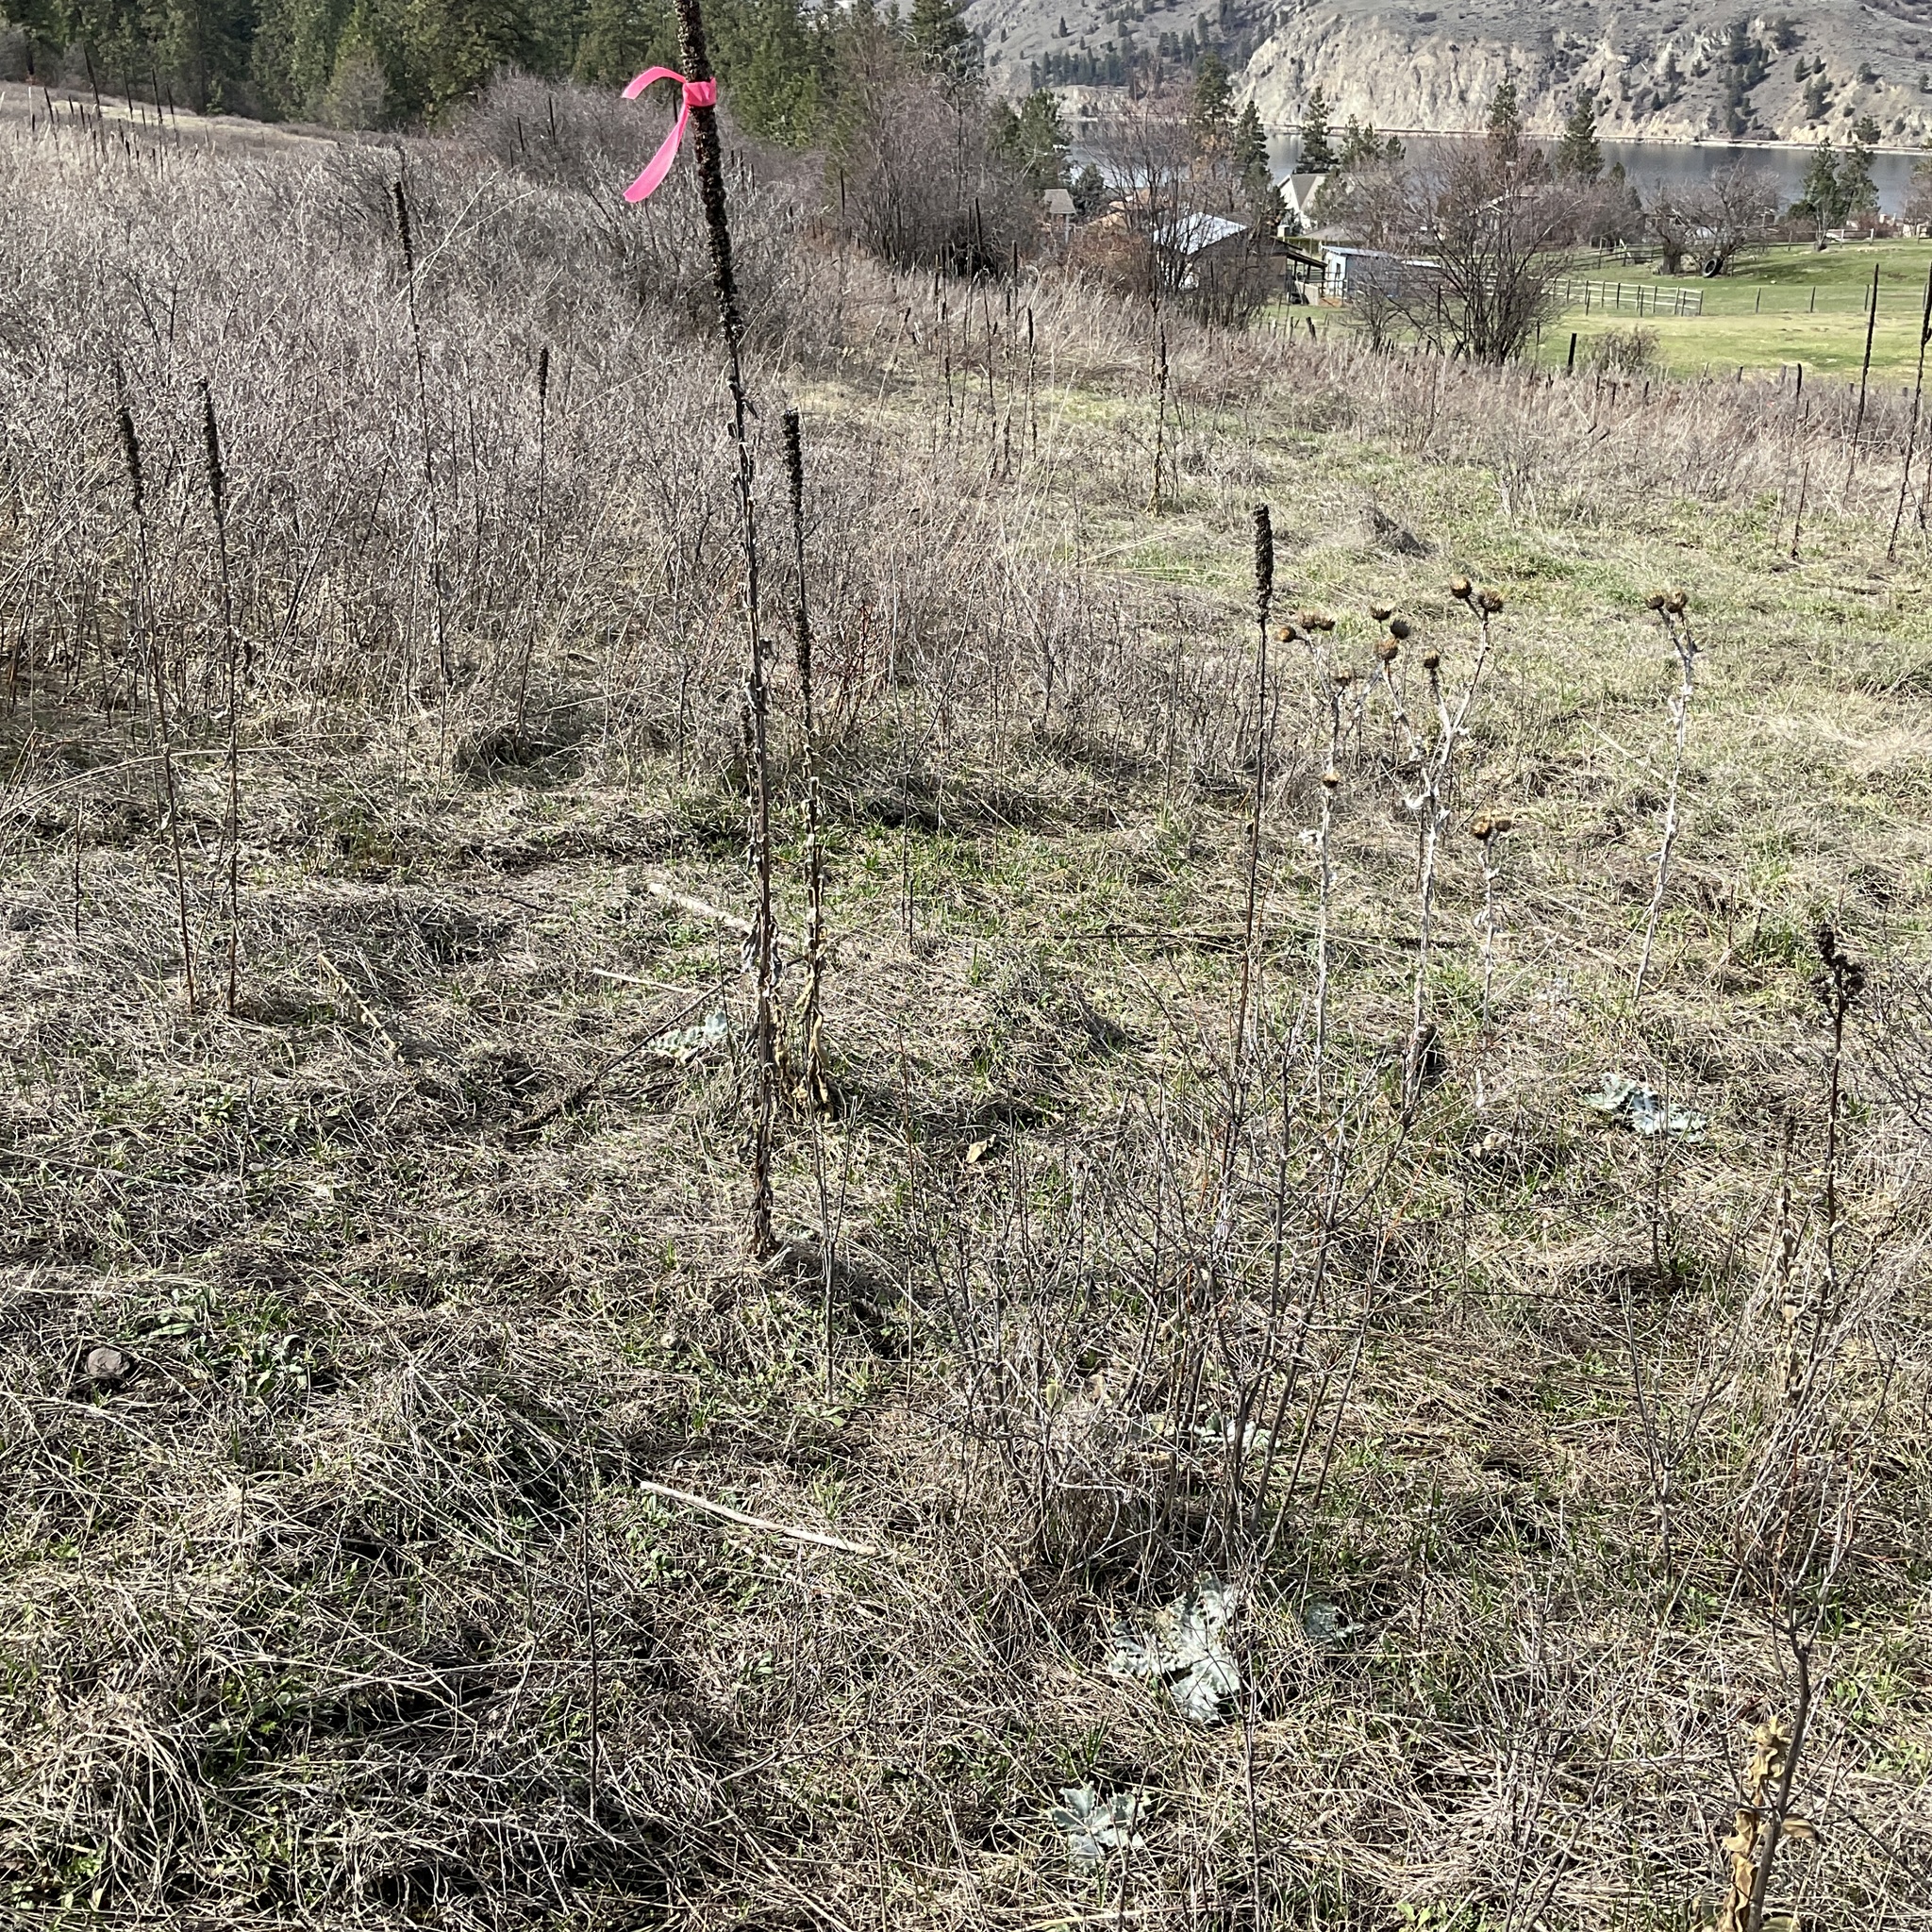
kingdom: Plantae
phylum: Tracheophyta
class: Magnoliopsida
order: Asterales
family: Asteraceae
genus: Onopordum
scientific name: Onopordum acanthium
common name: Scotch thistle
